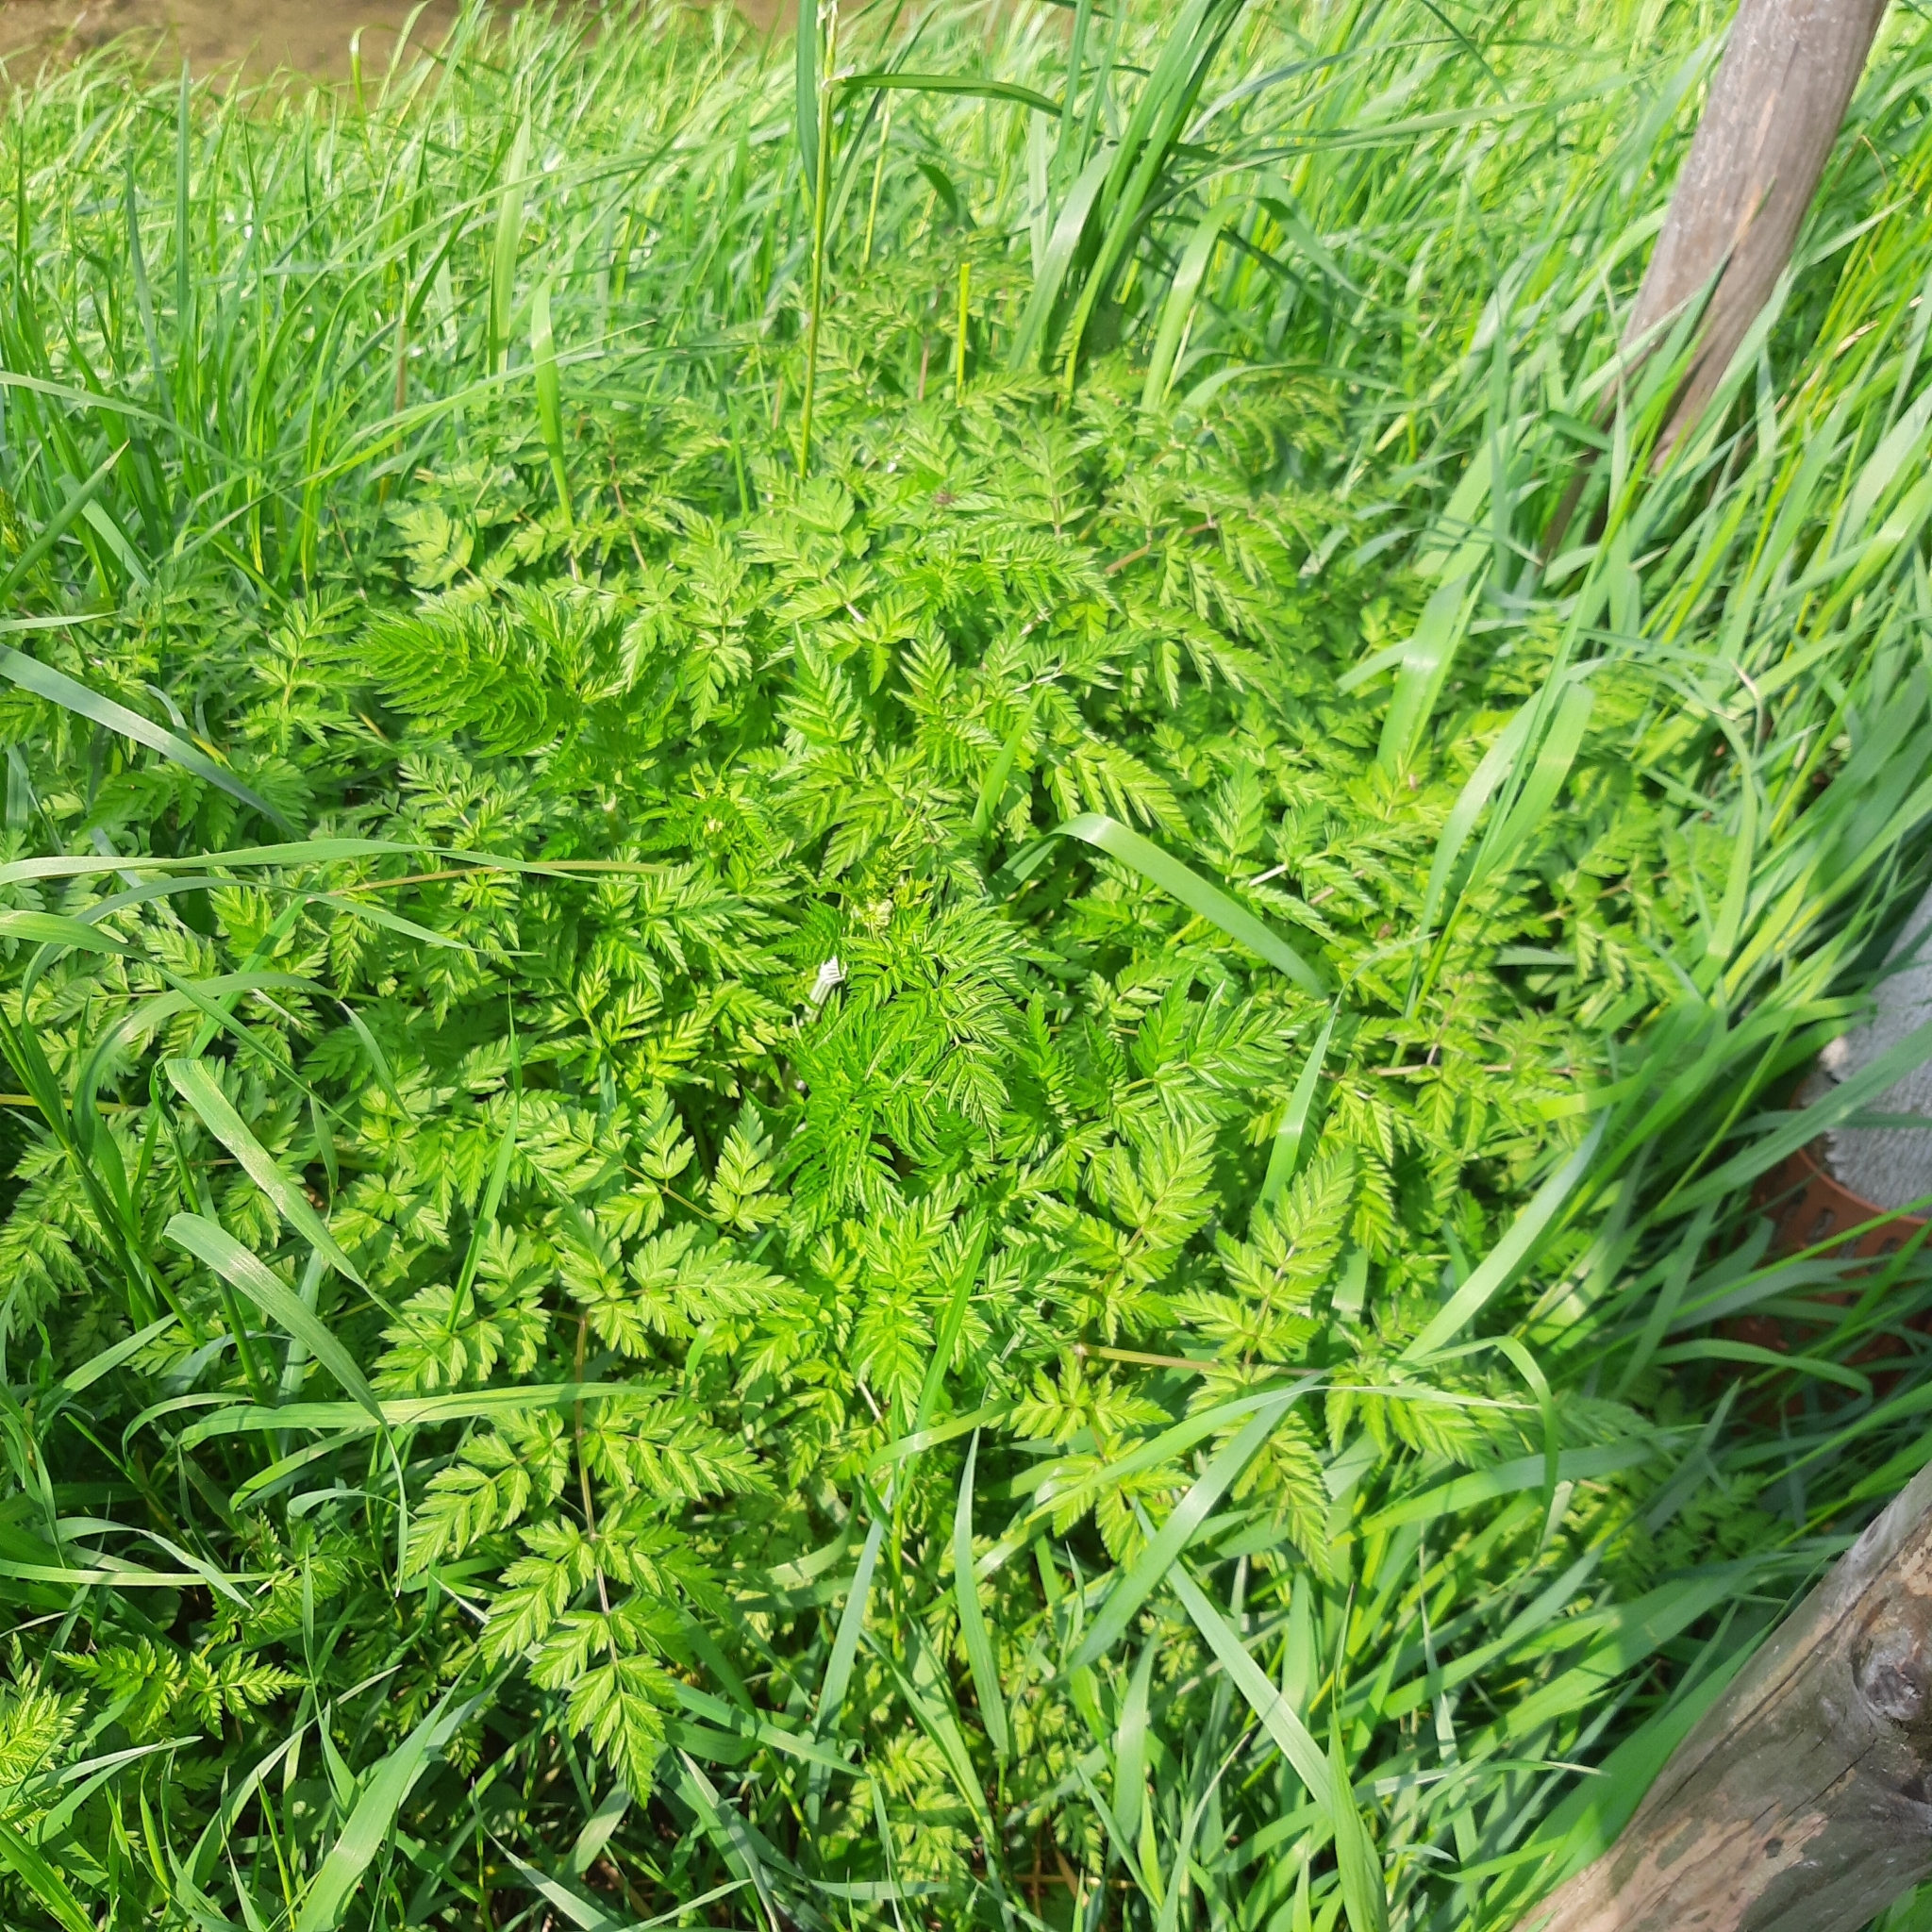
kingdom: Plantae
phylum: Tracheophyta
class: Magnoliopsida
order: Apiales
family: Apiaceae
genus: Anthriscus
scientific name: Anthriscus sylvestris
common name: Cow parsley
